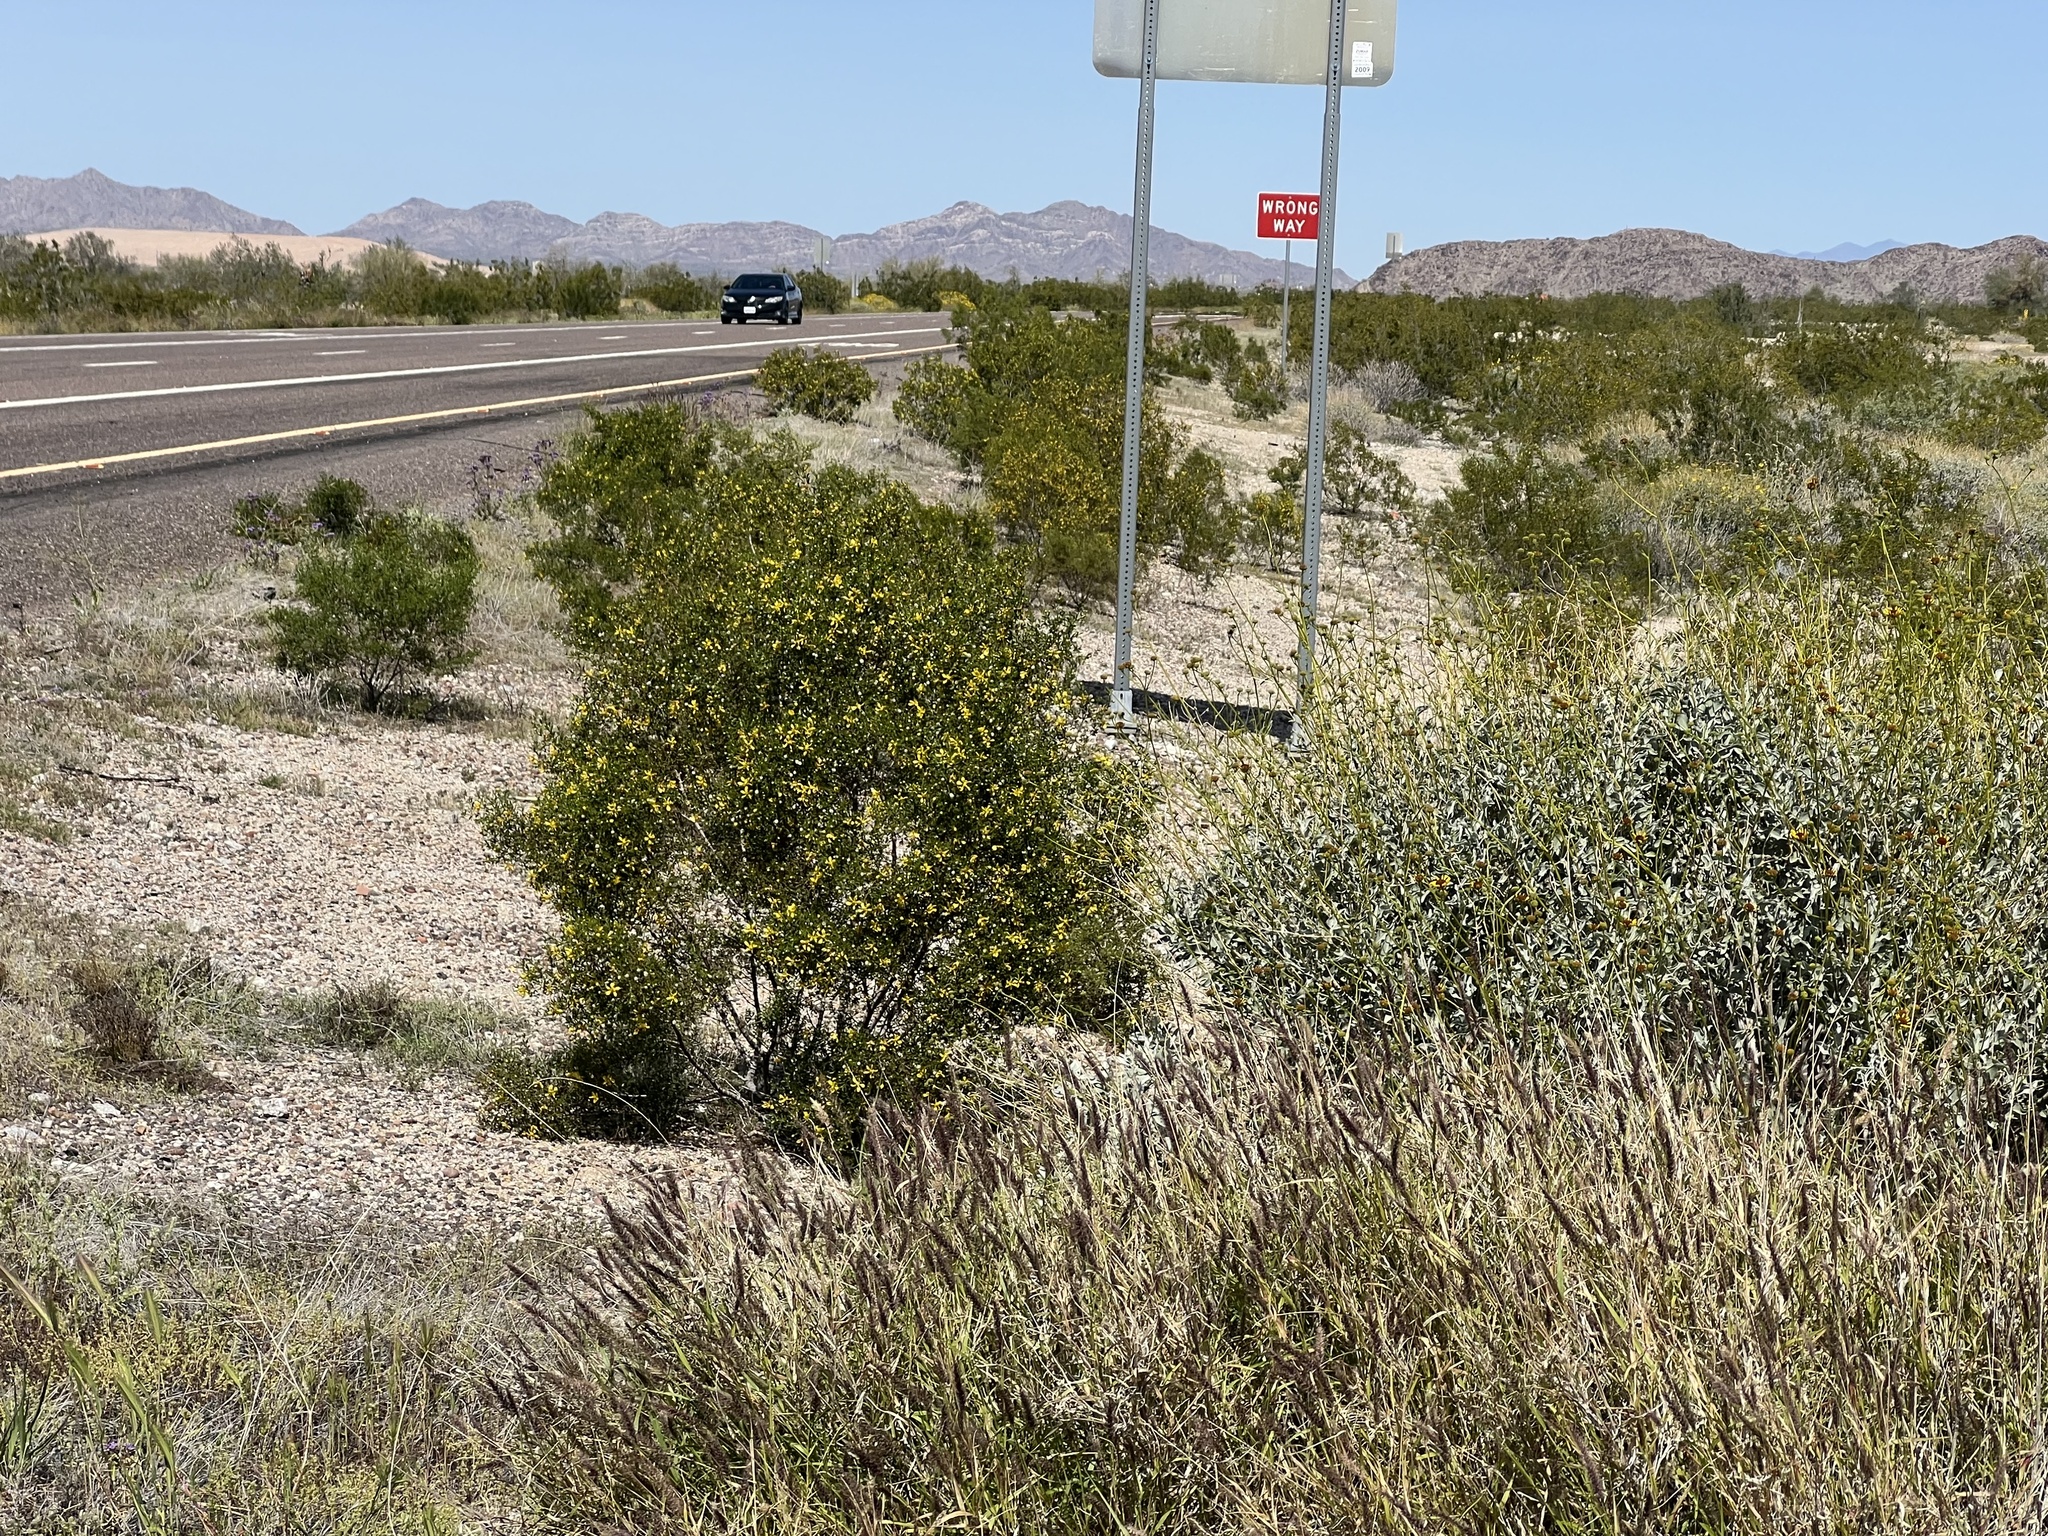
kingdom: Plantae
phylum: Tracheophyta
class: Magnoliopsida
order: Zygophyllales
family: Zygophyllaceae
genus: Larrea
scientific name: Larrea tridentata
